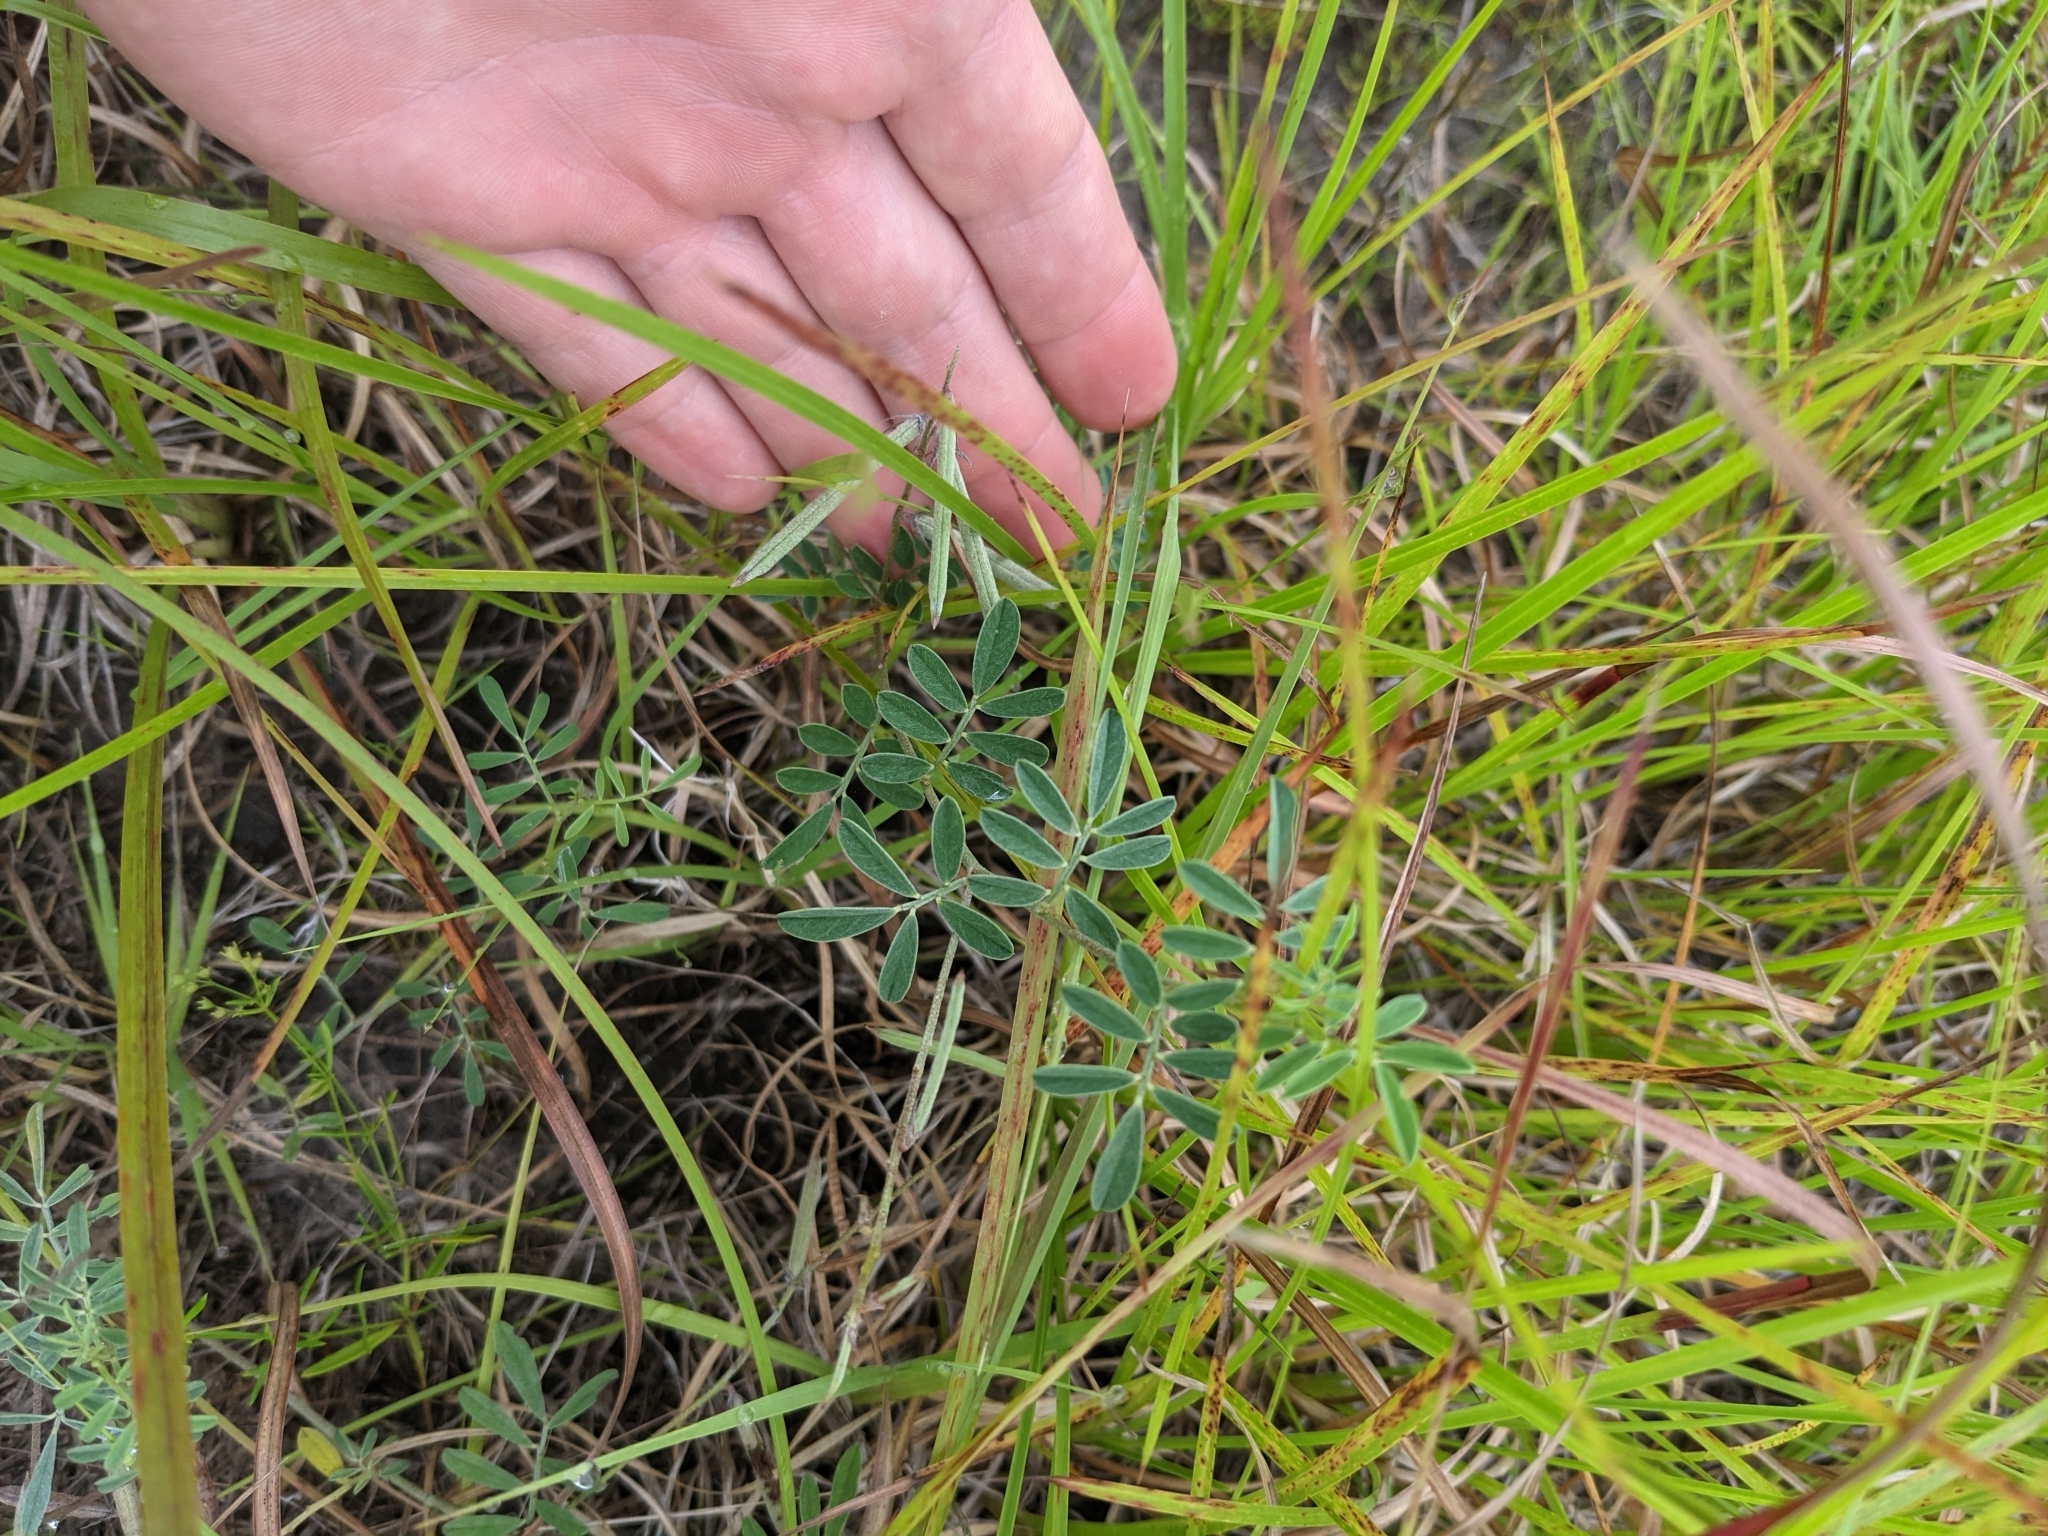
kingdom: Plantae
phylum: Tracheophyta
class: Magnoliopsida
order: Fabales
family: Fabaceae
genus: Indigofera
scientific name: Indigofera miniata
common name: Coast indigo
